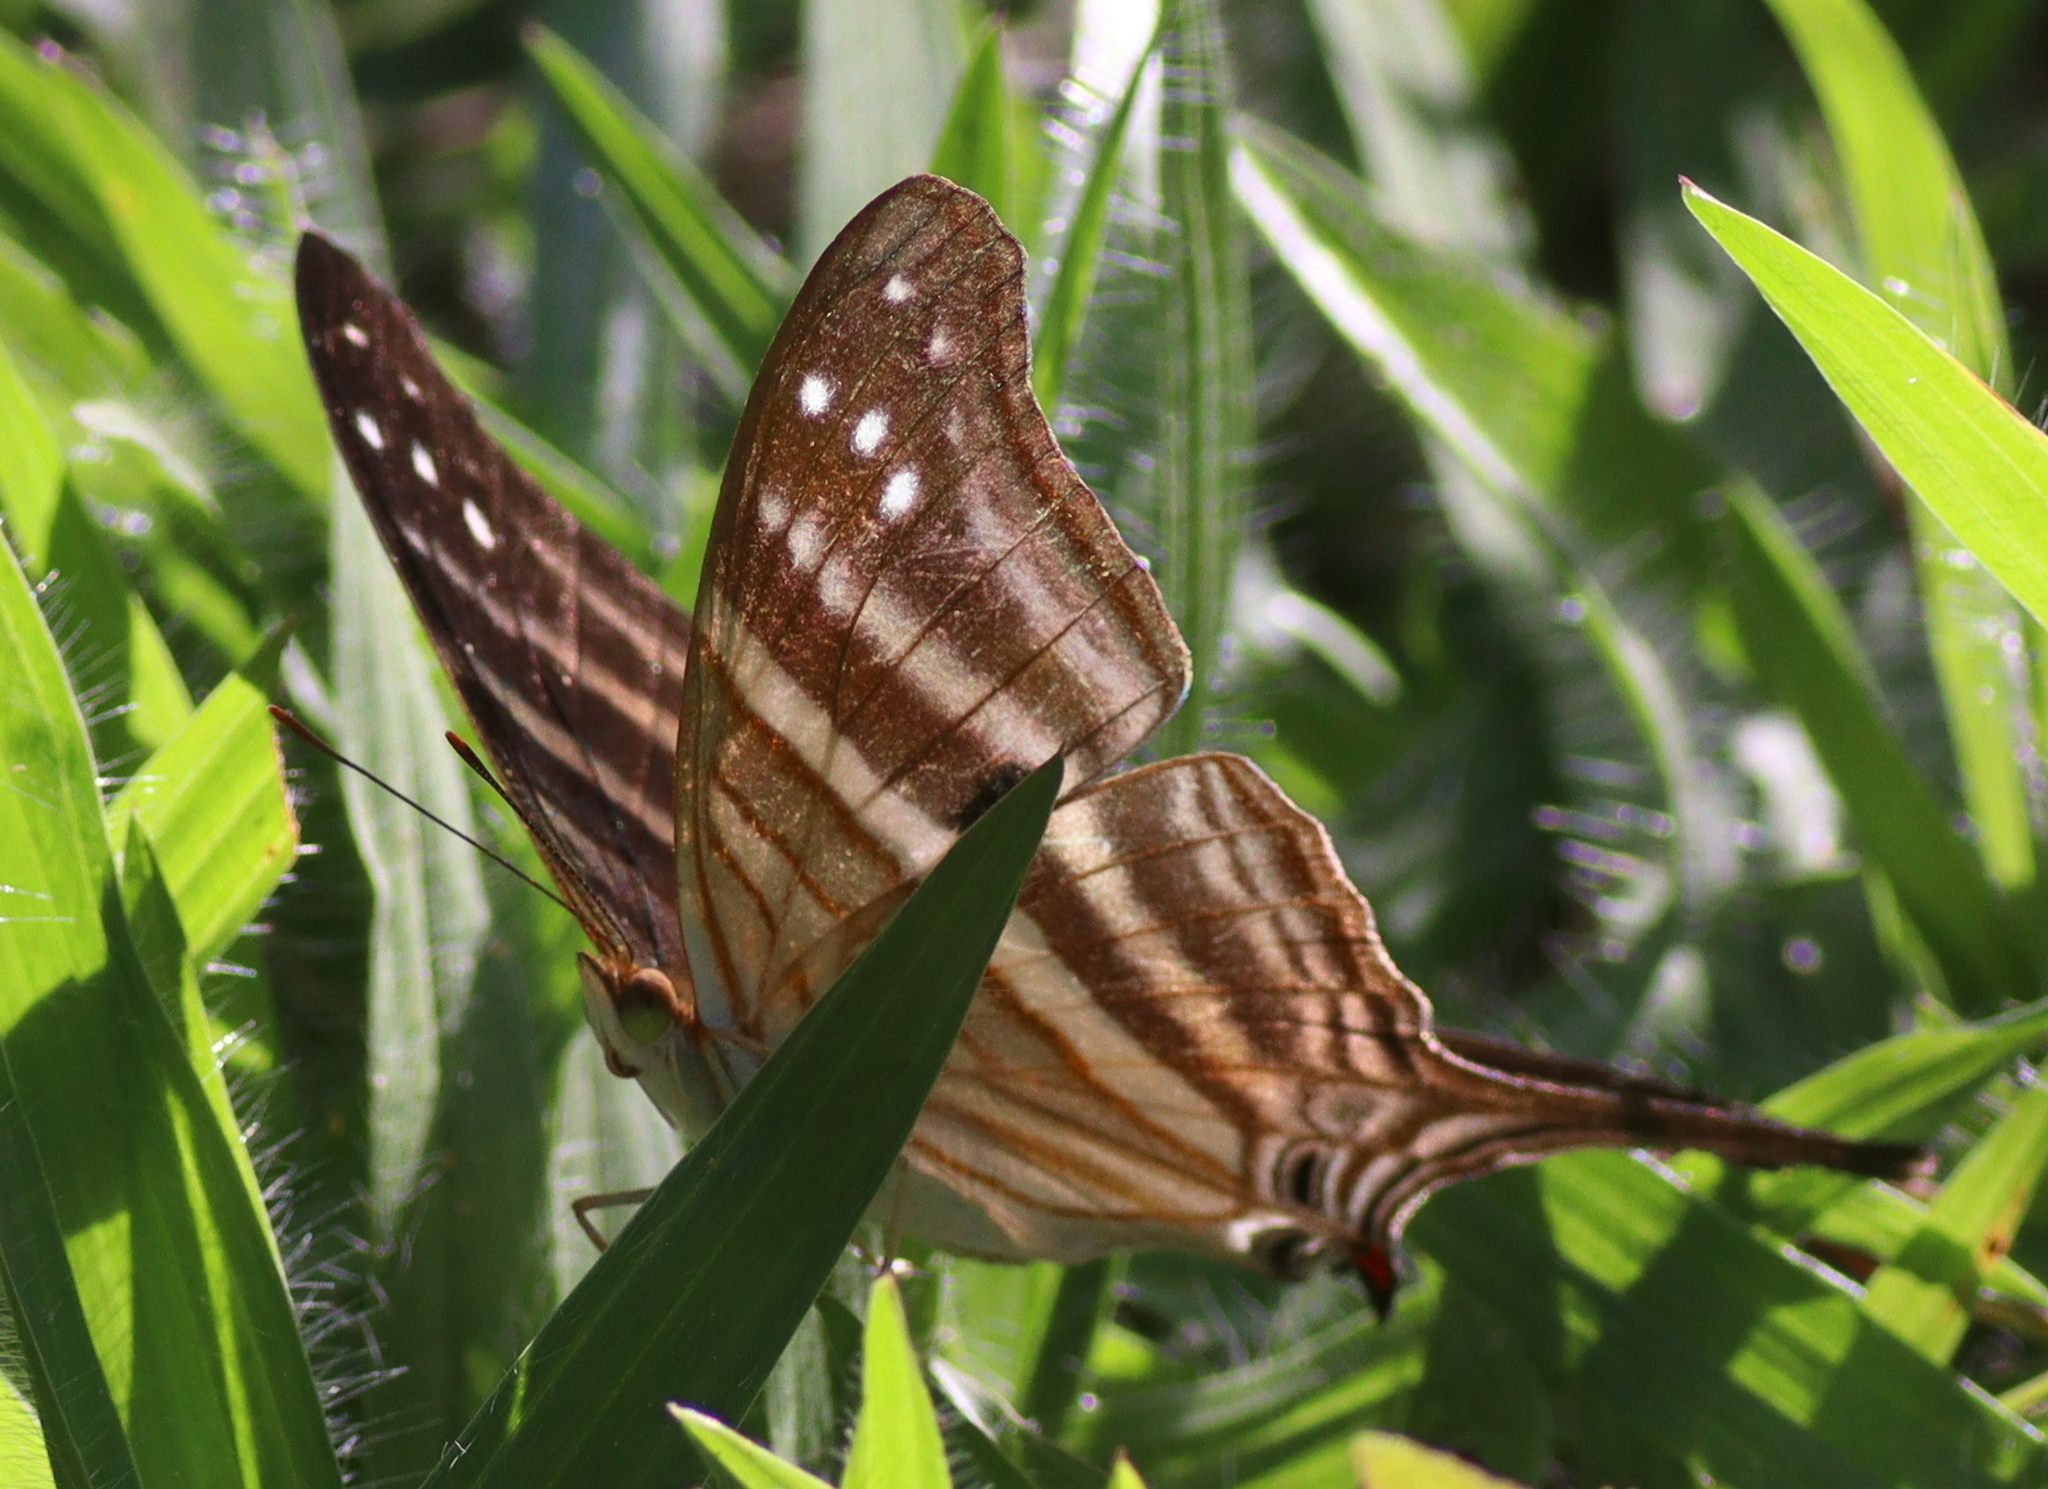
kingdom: Animalia
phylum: Arthropoda
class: Insecta
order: Lepidoptera
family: Nymphalidae
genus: Marpesia
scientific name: Marpesia chiron
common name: Many-banded daggerwing
